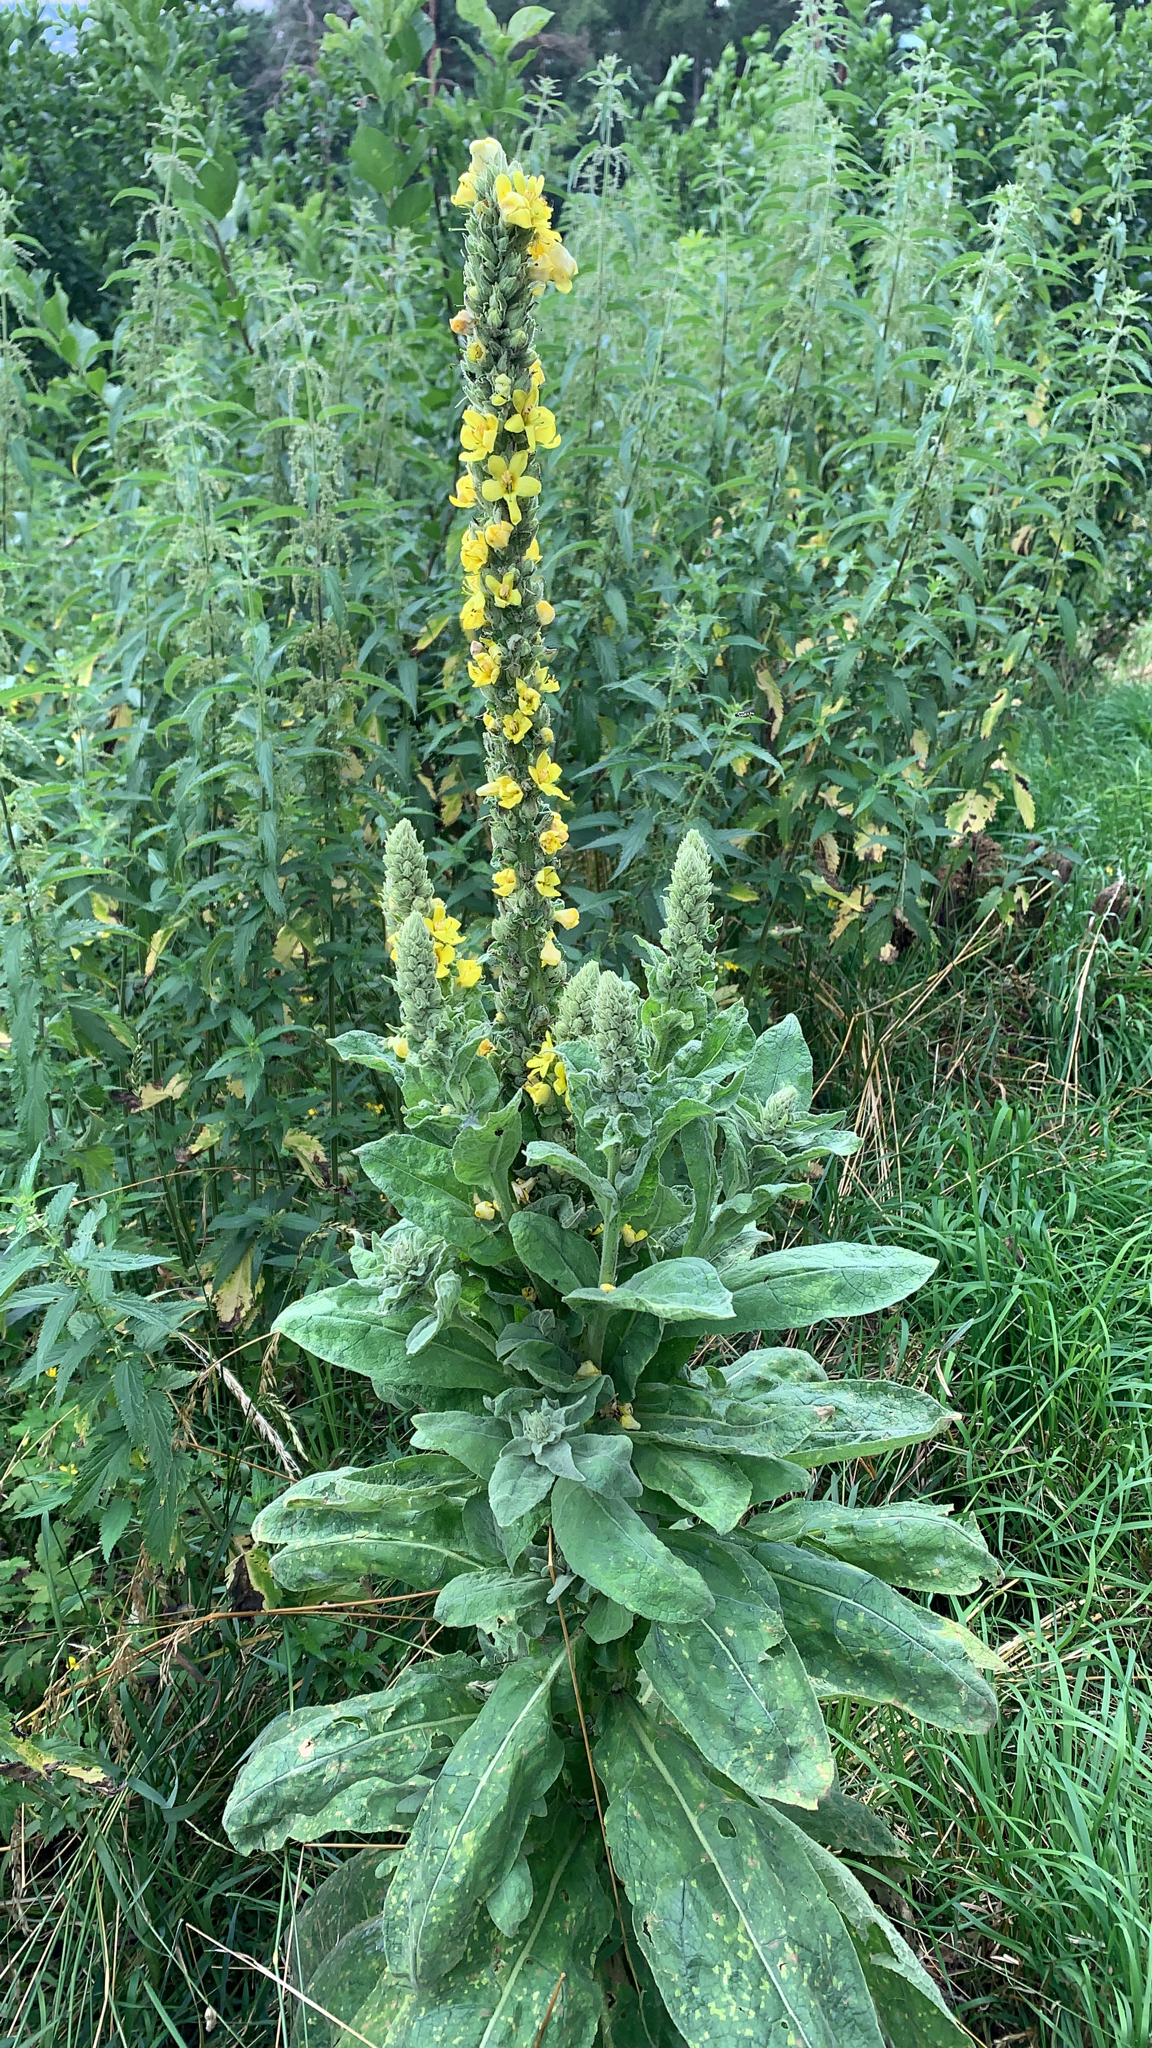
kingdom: Plantae
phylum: Tracheophyta
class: Magnoliopsida
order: Lamiales
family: Scrophulariaceae
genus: Verbascum
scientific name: Verbascum thapsus
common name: Common mullein
